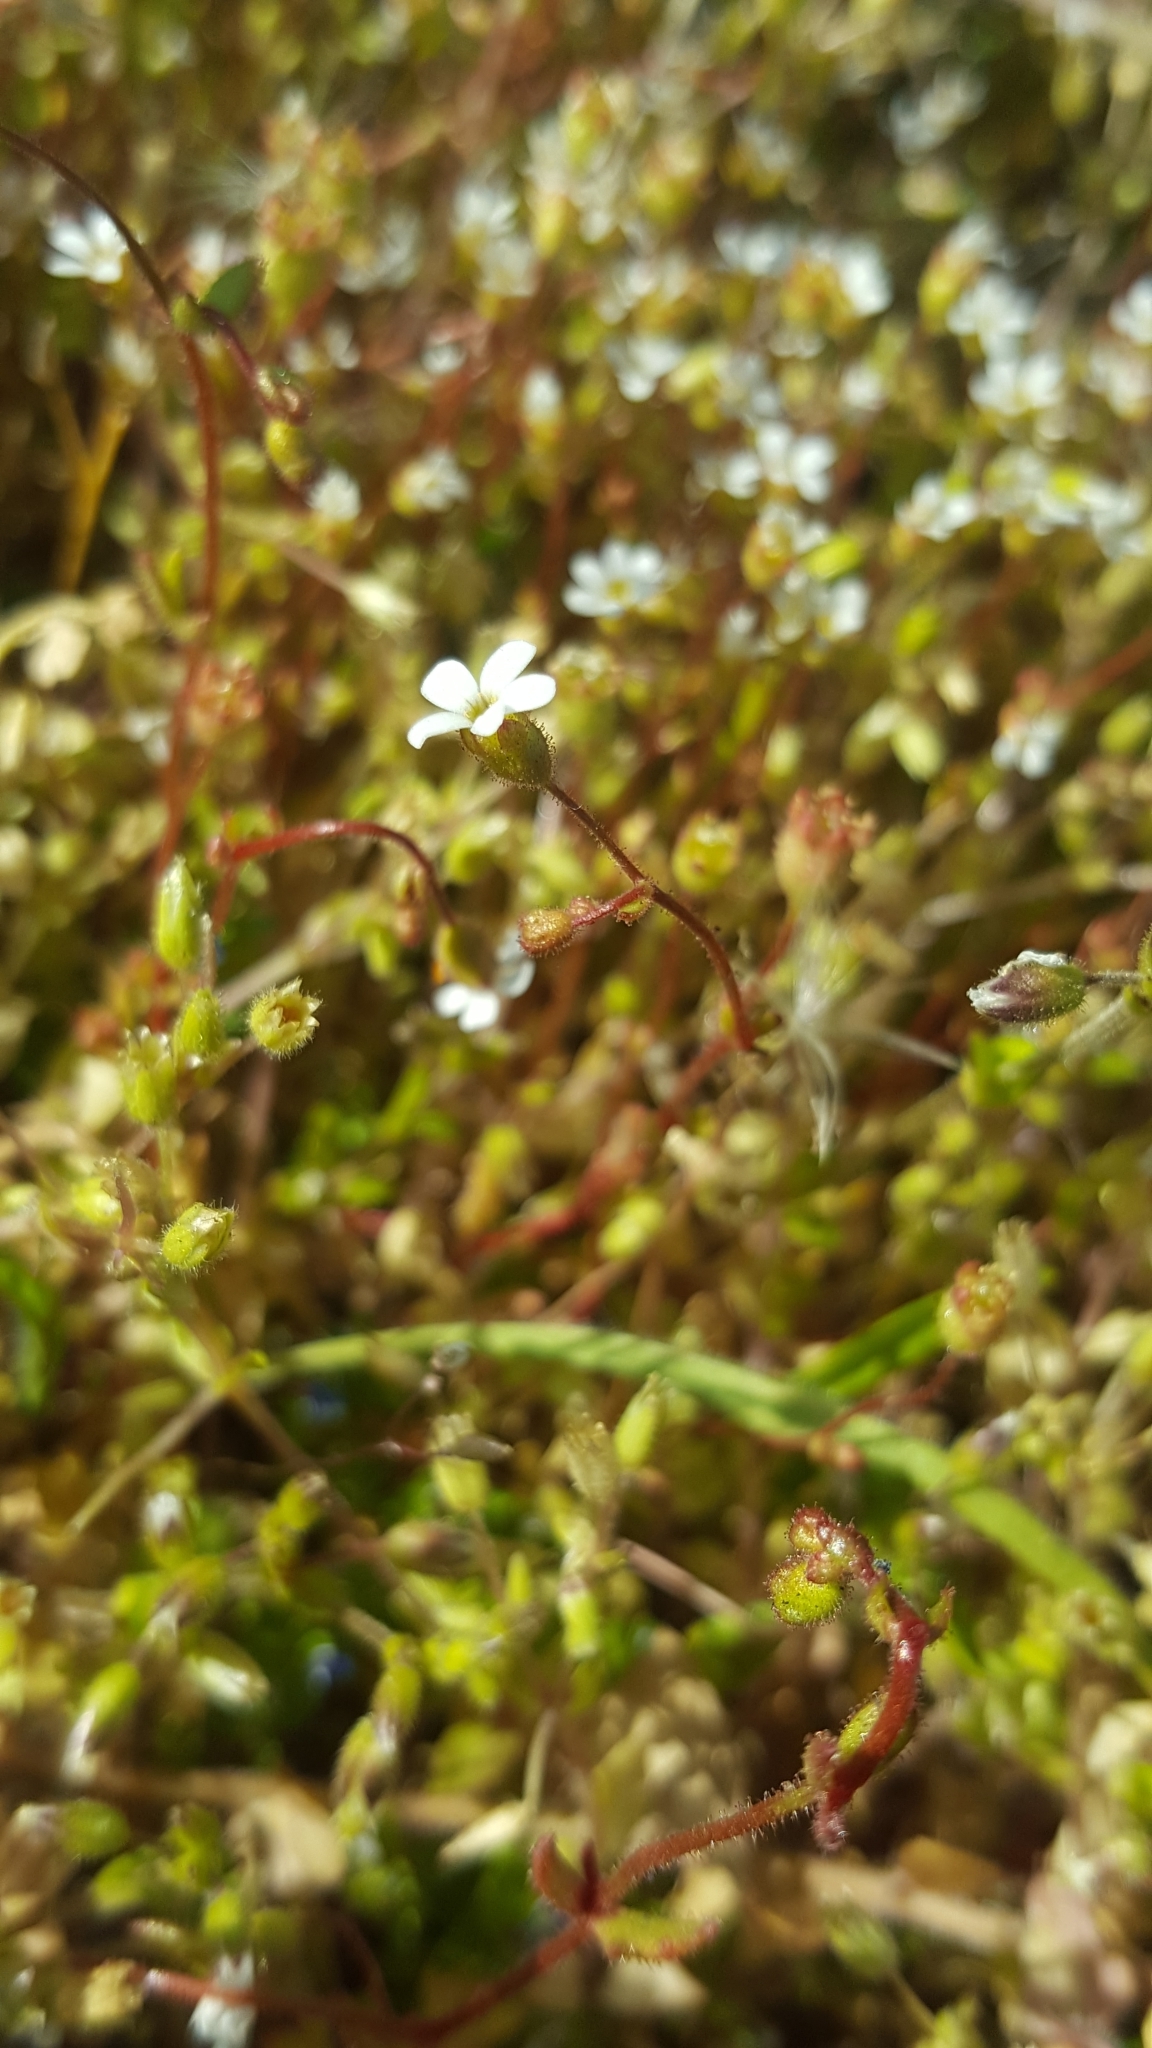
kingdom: Plantae
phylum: Tracheophyta
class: Magnoliopsida
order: Saxifragales
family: Saxifragaceae
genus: Saxifraga
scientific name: Saxifraga tridactylites
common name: Rue-leaved saxifrage
